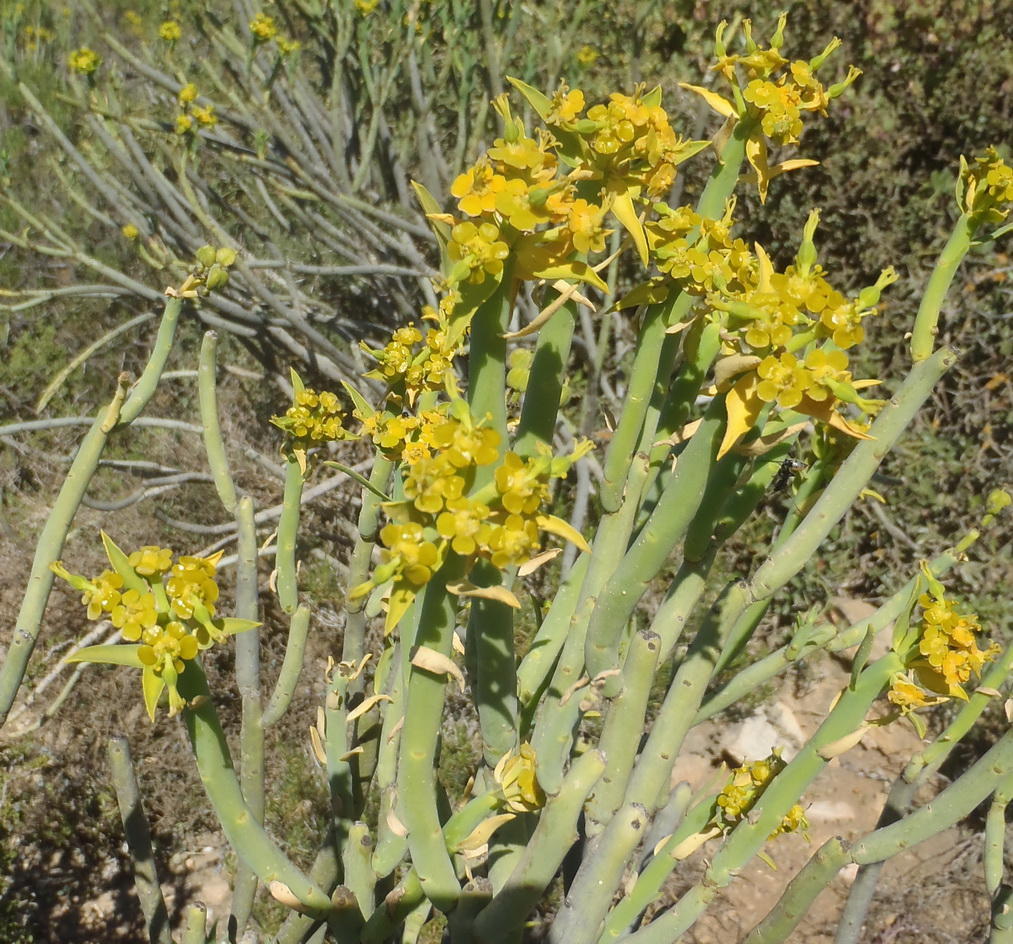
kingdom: Plantae
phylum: Tracheophyta
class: Magnoliopsida
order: Malpighiales
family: Euphorbiaceae
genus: Euphorbia
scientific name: Euphorbia mauritanica
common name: Jackal's-food
